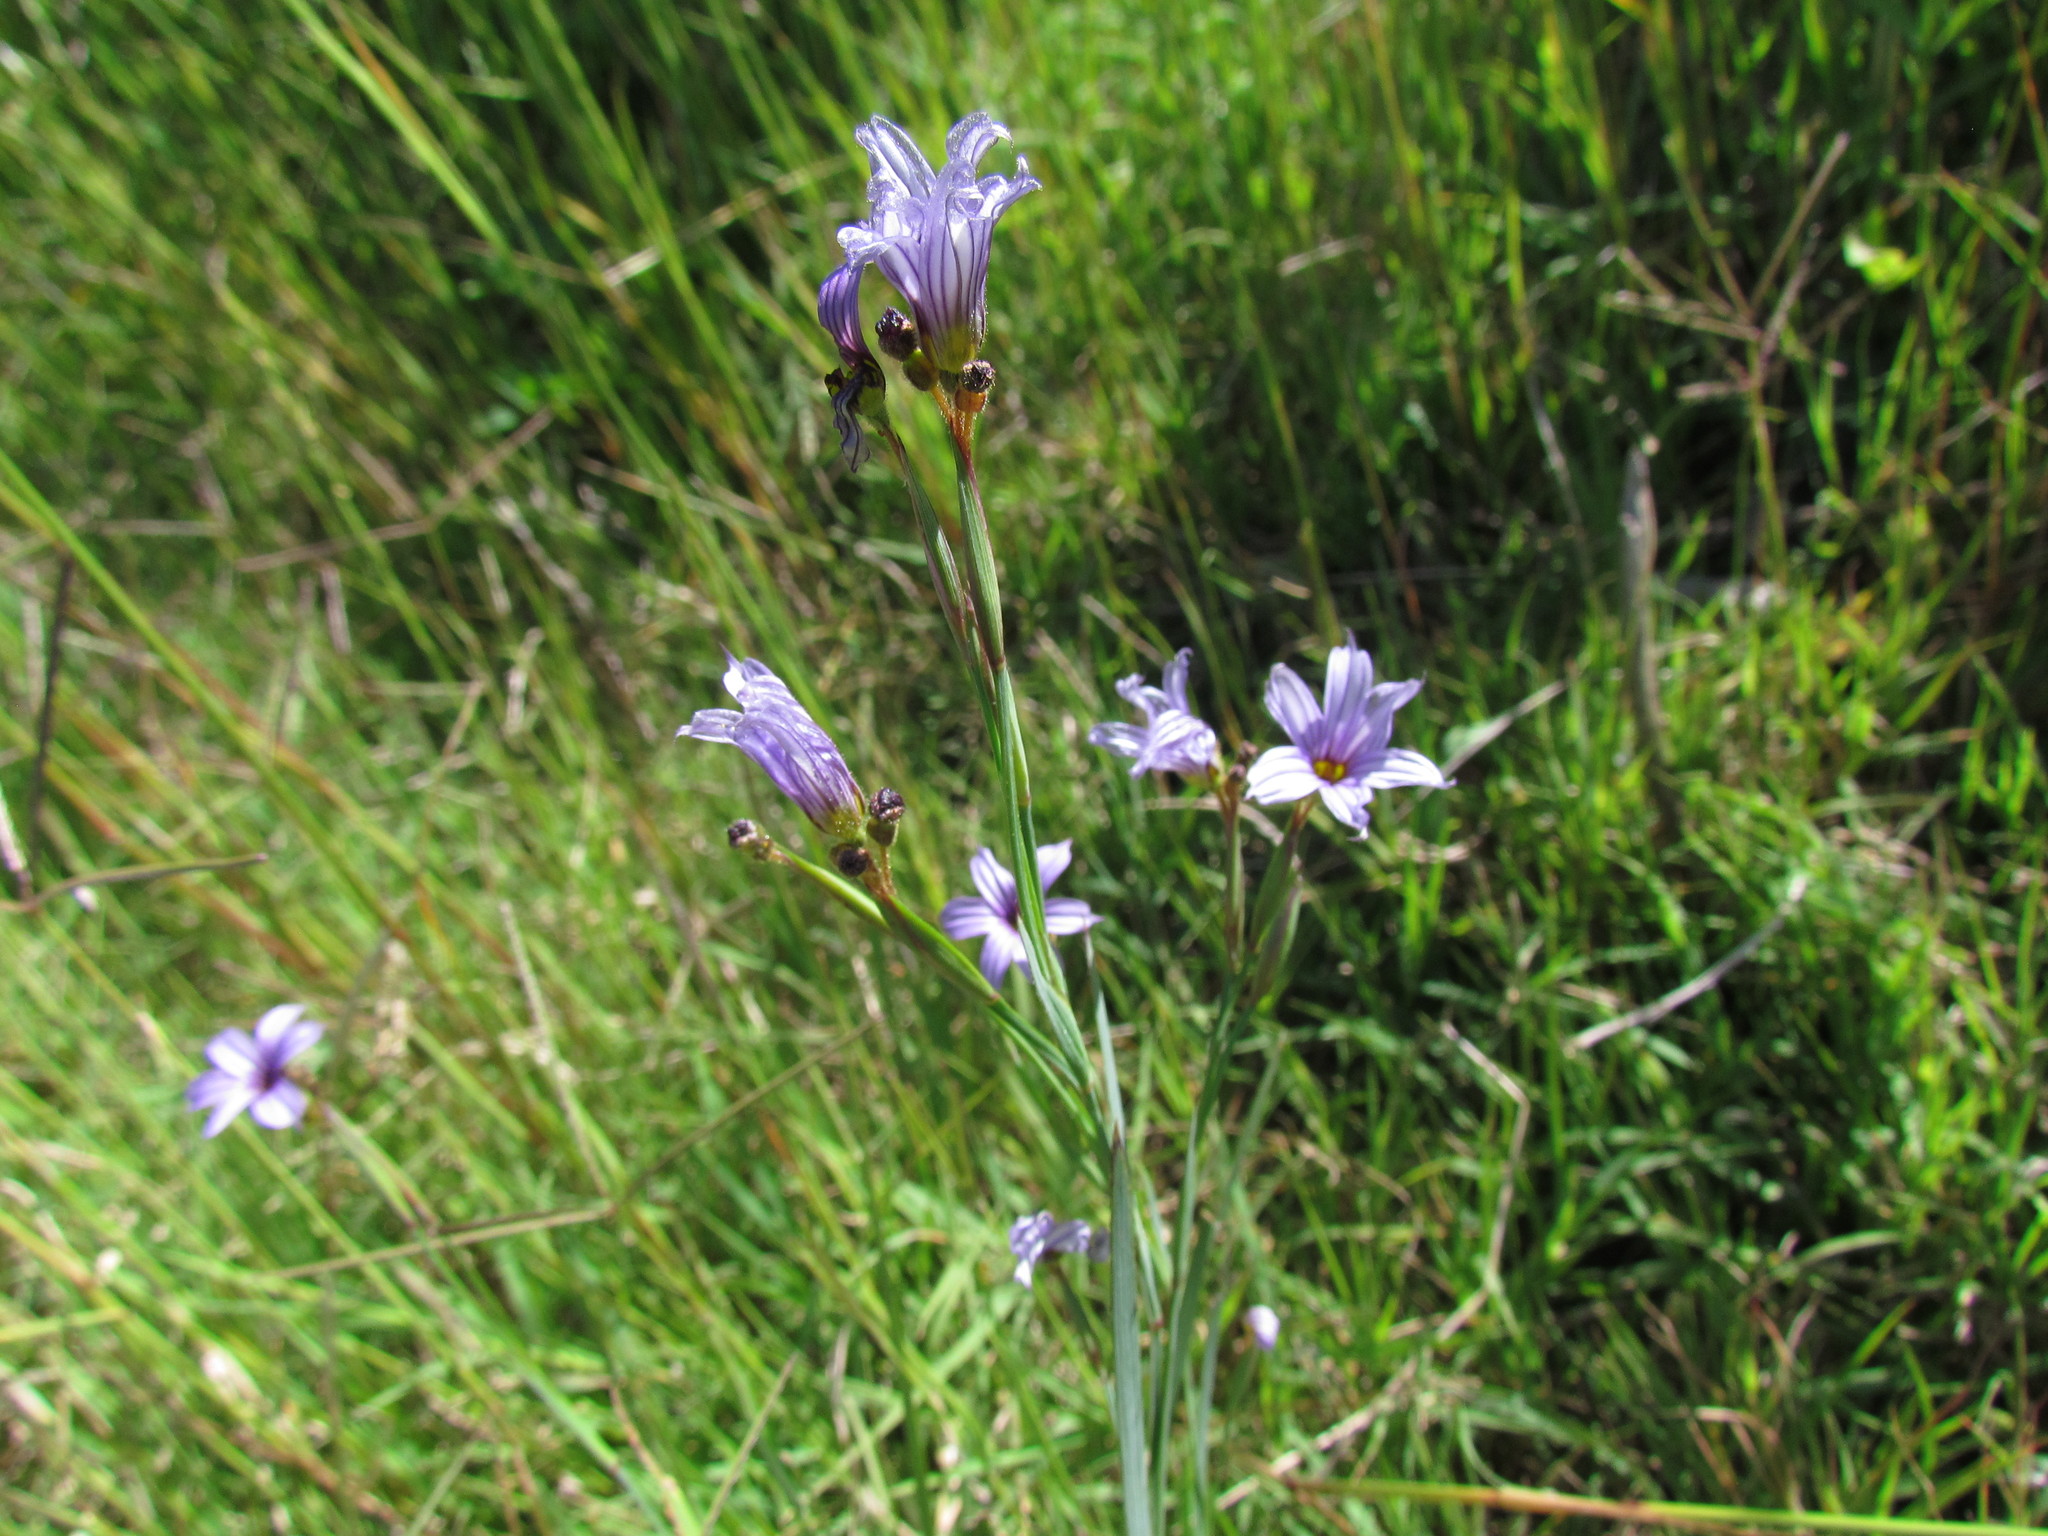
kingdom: Plantae
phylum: Tracheophyta
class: Liliopsida
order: Asparagales
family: Iridaceae
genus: Sisyrinchium
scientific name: Sisyrinchium platense
